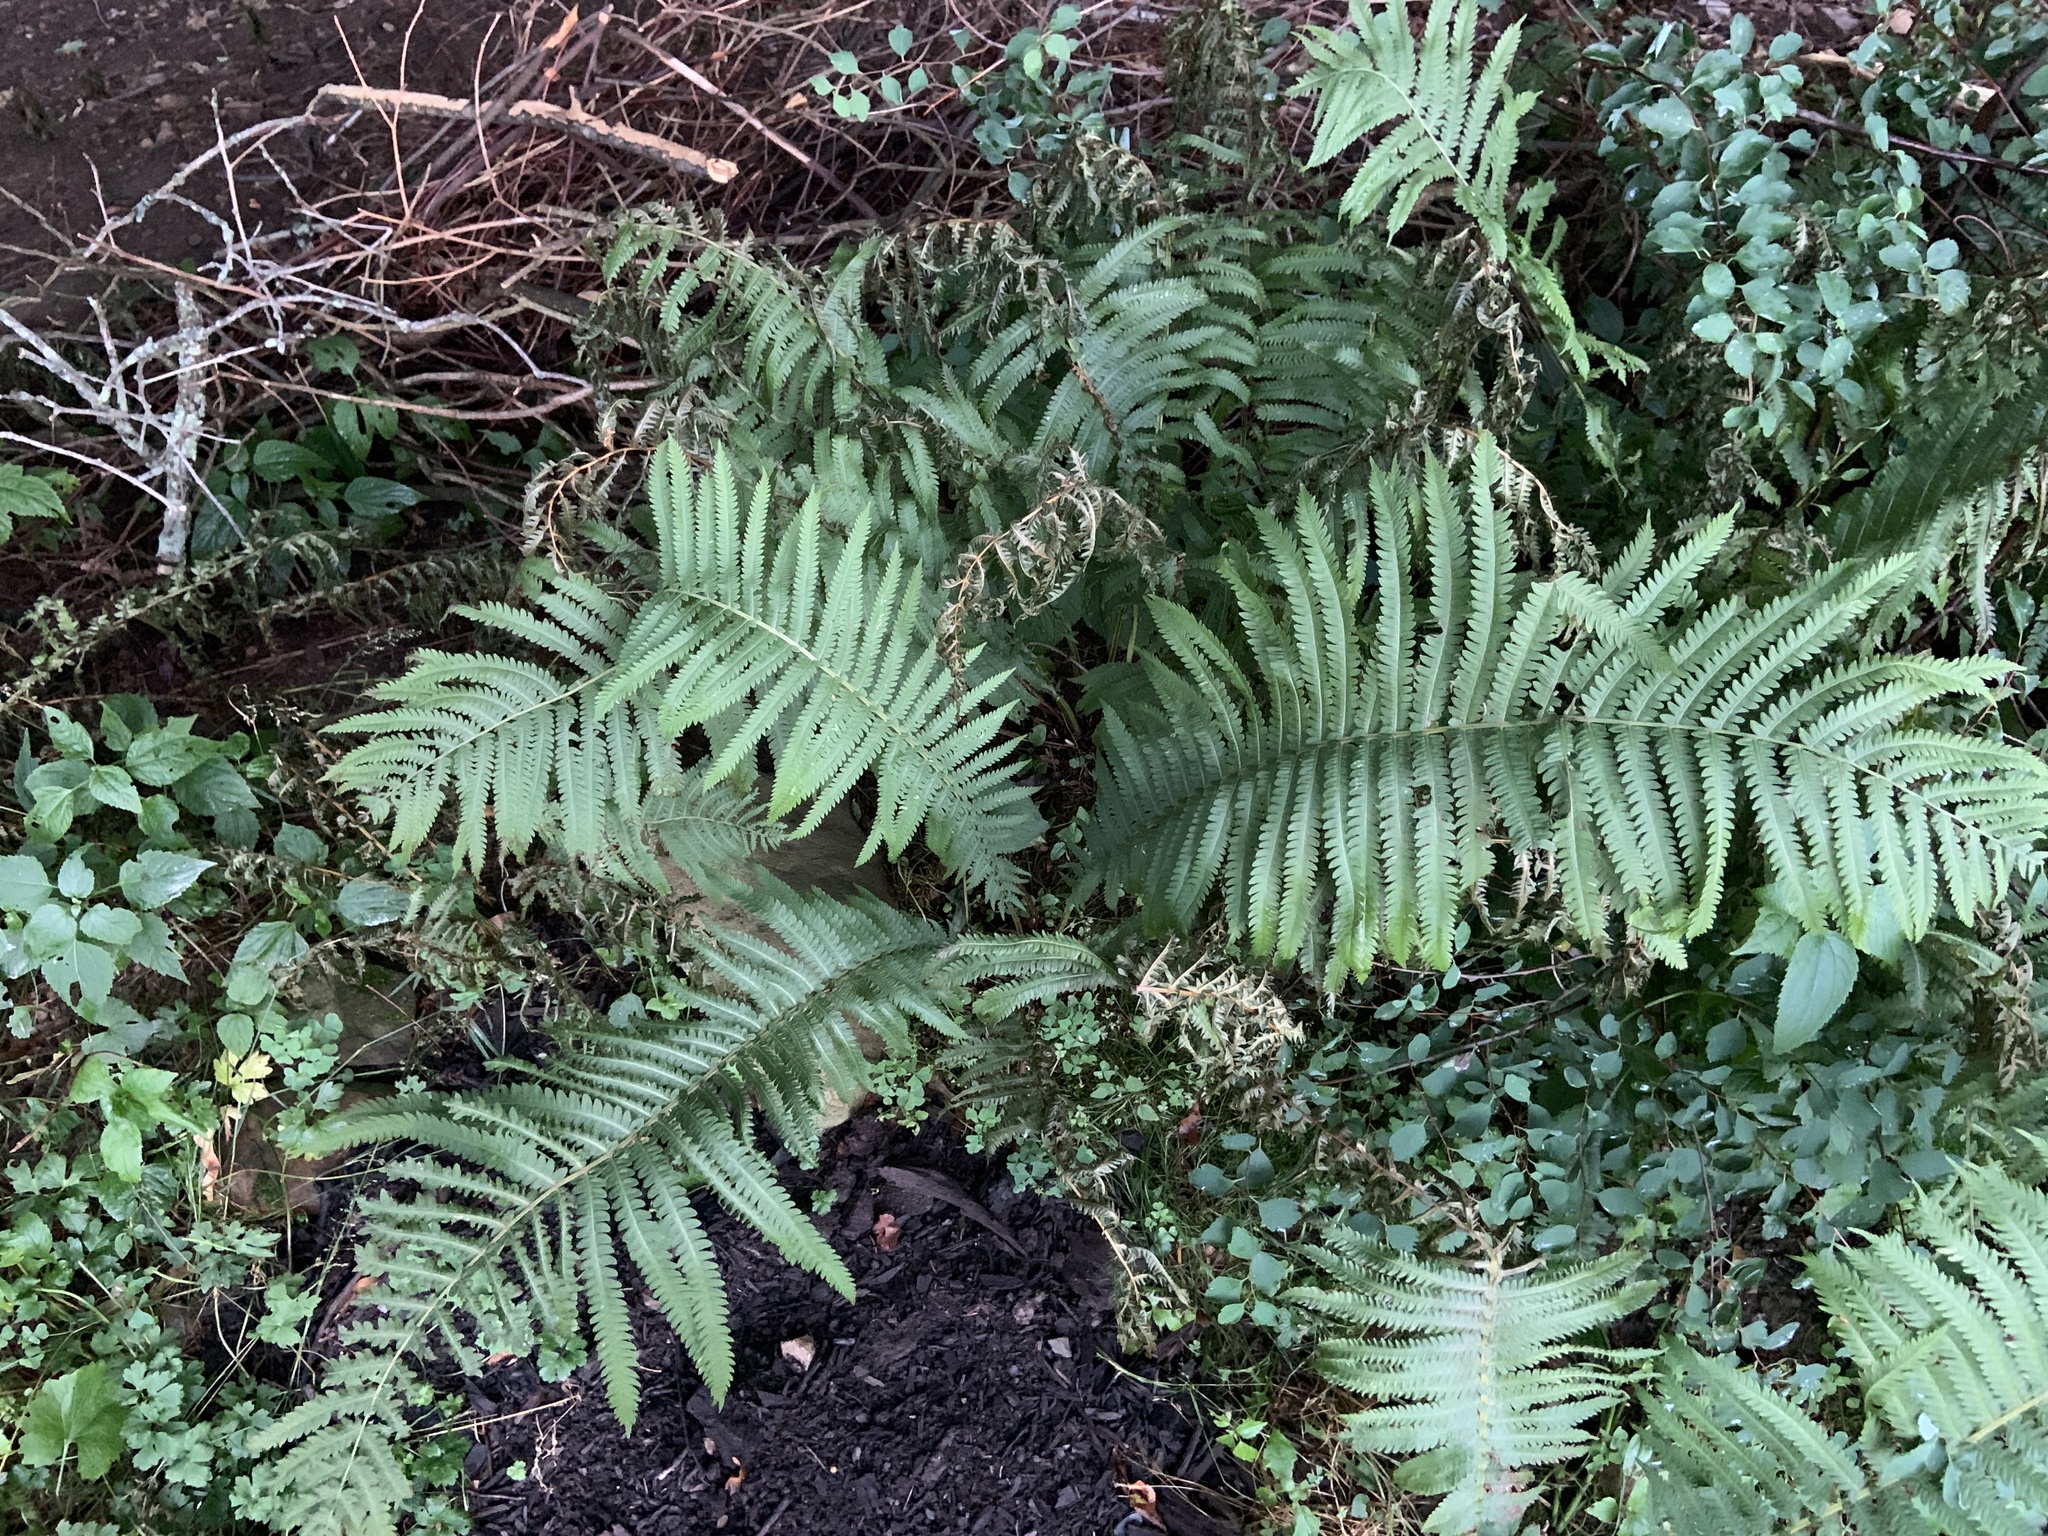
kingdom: Plantae
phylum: Tracheophyta
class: Polypodiopsida
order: Polypodiales
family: Onocleaceae
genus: Matteuccia
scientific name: Matteuccia struthiopteris
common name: Ostrich fern
